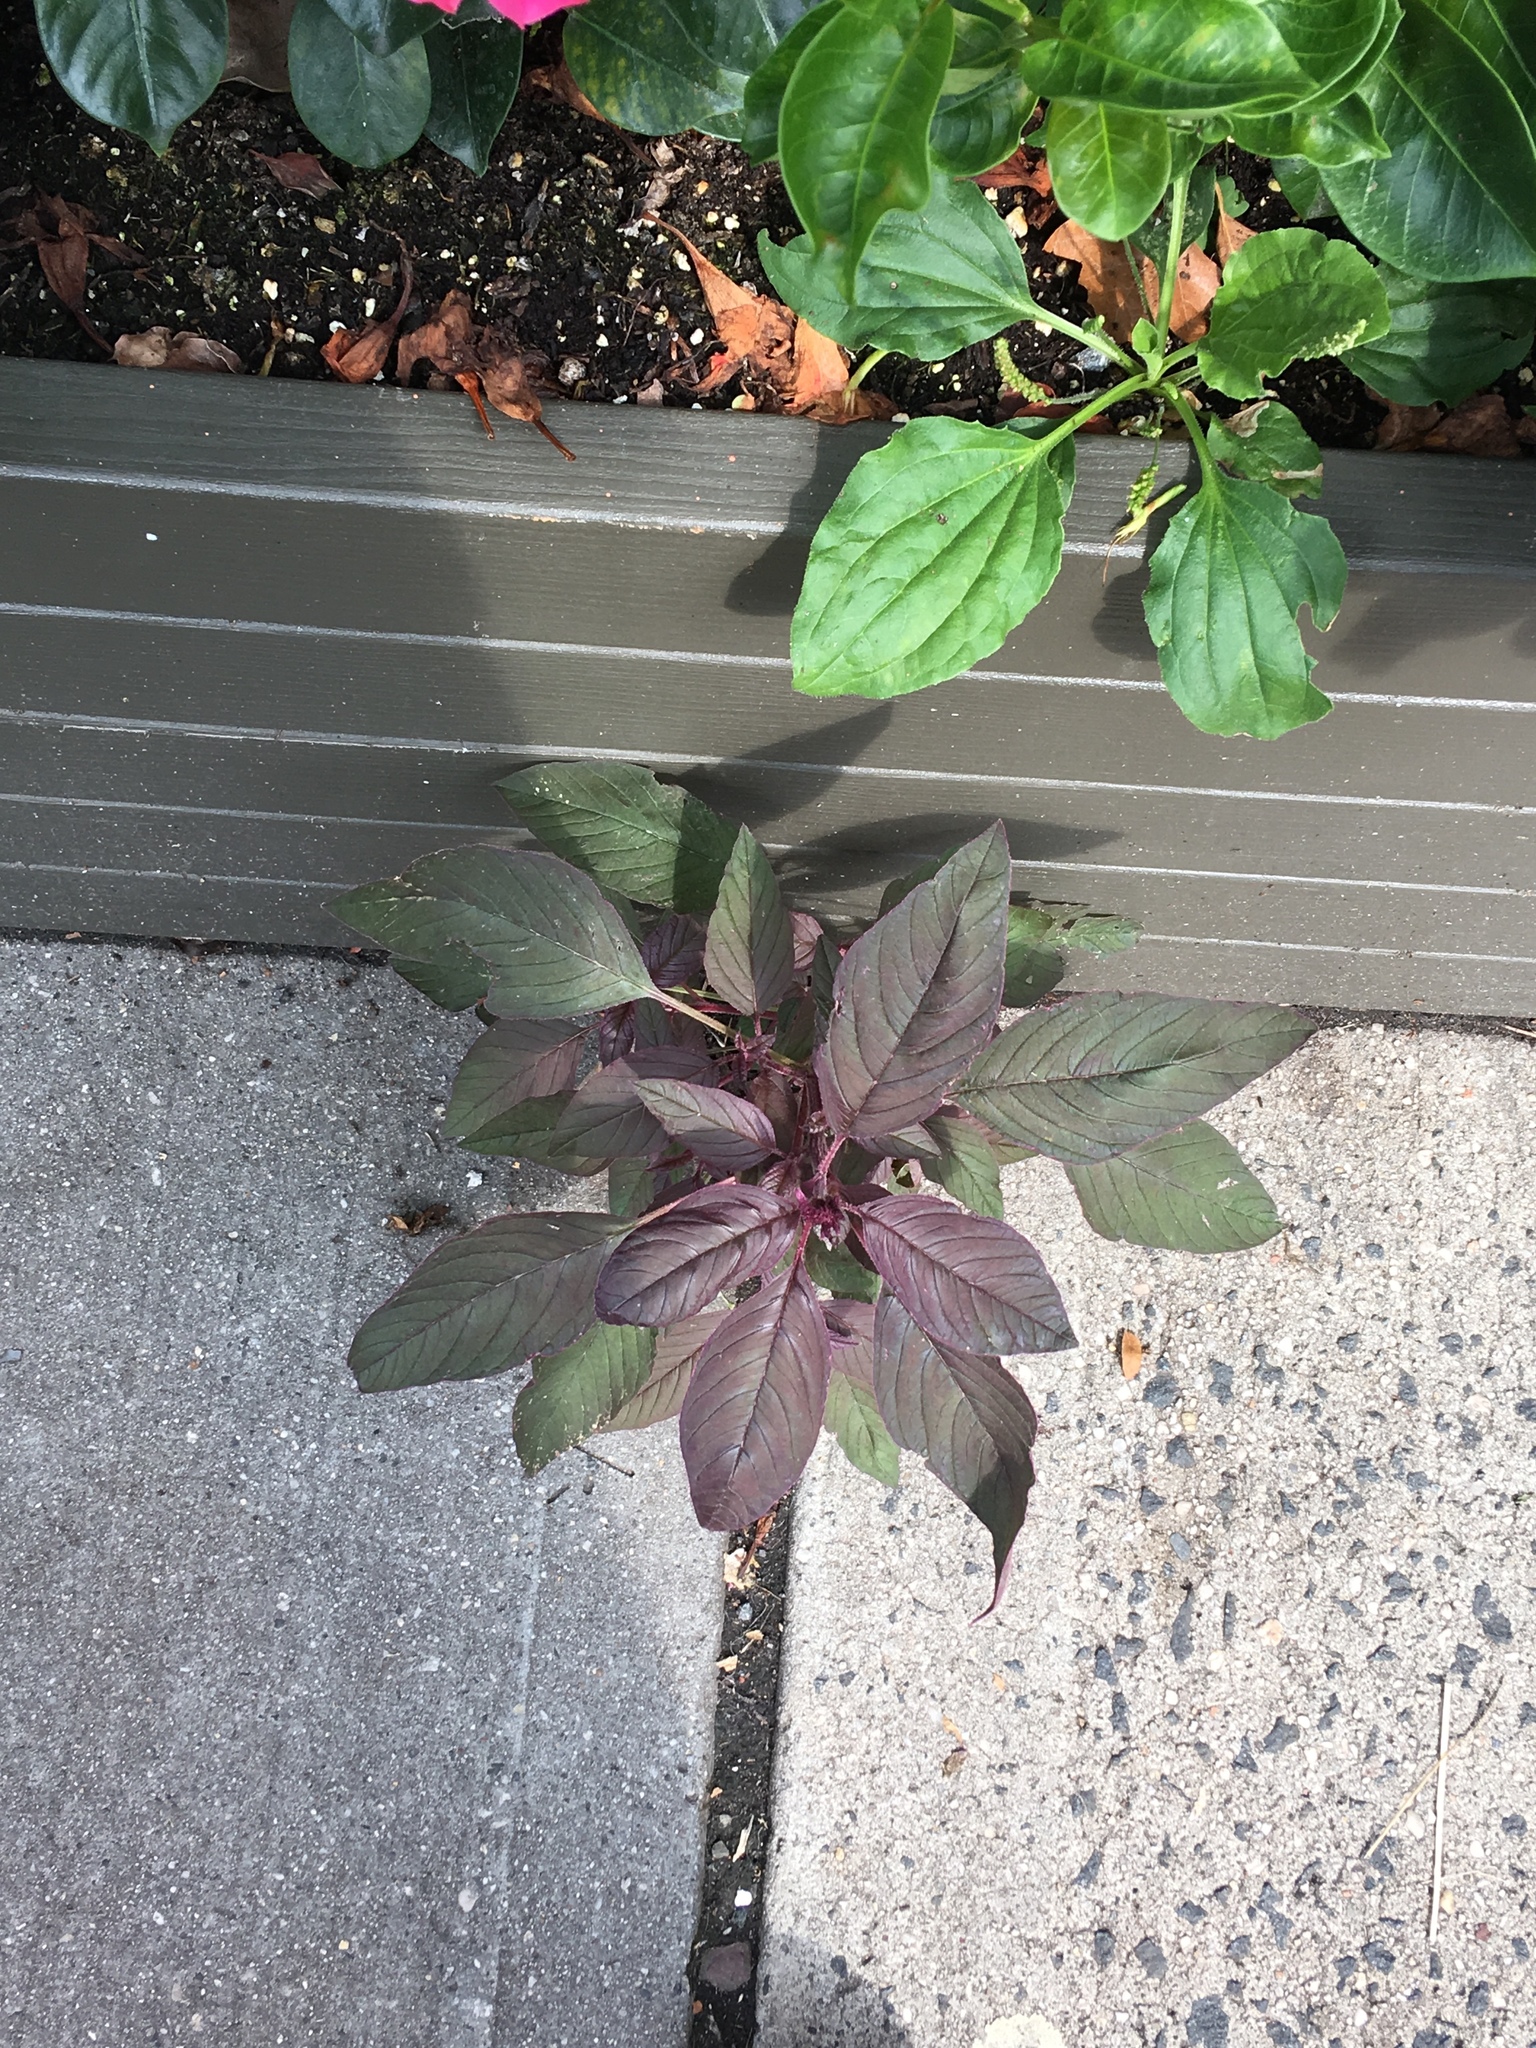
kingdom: Plantae
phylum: Tracheophyta
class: Magnoliopsida
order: Caryophyllales
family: Amaranthaceae
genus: Amaranthus
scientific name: Amaranthus cruentus
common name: Purple amaranth
